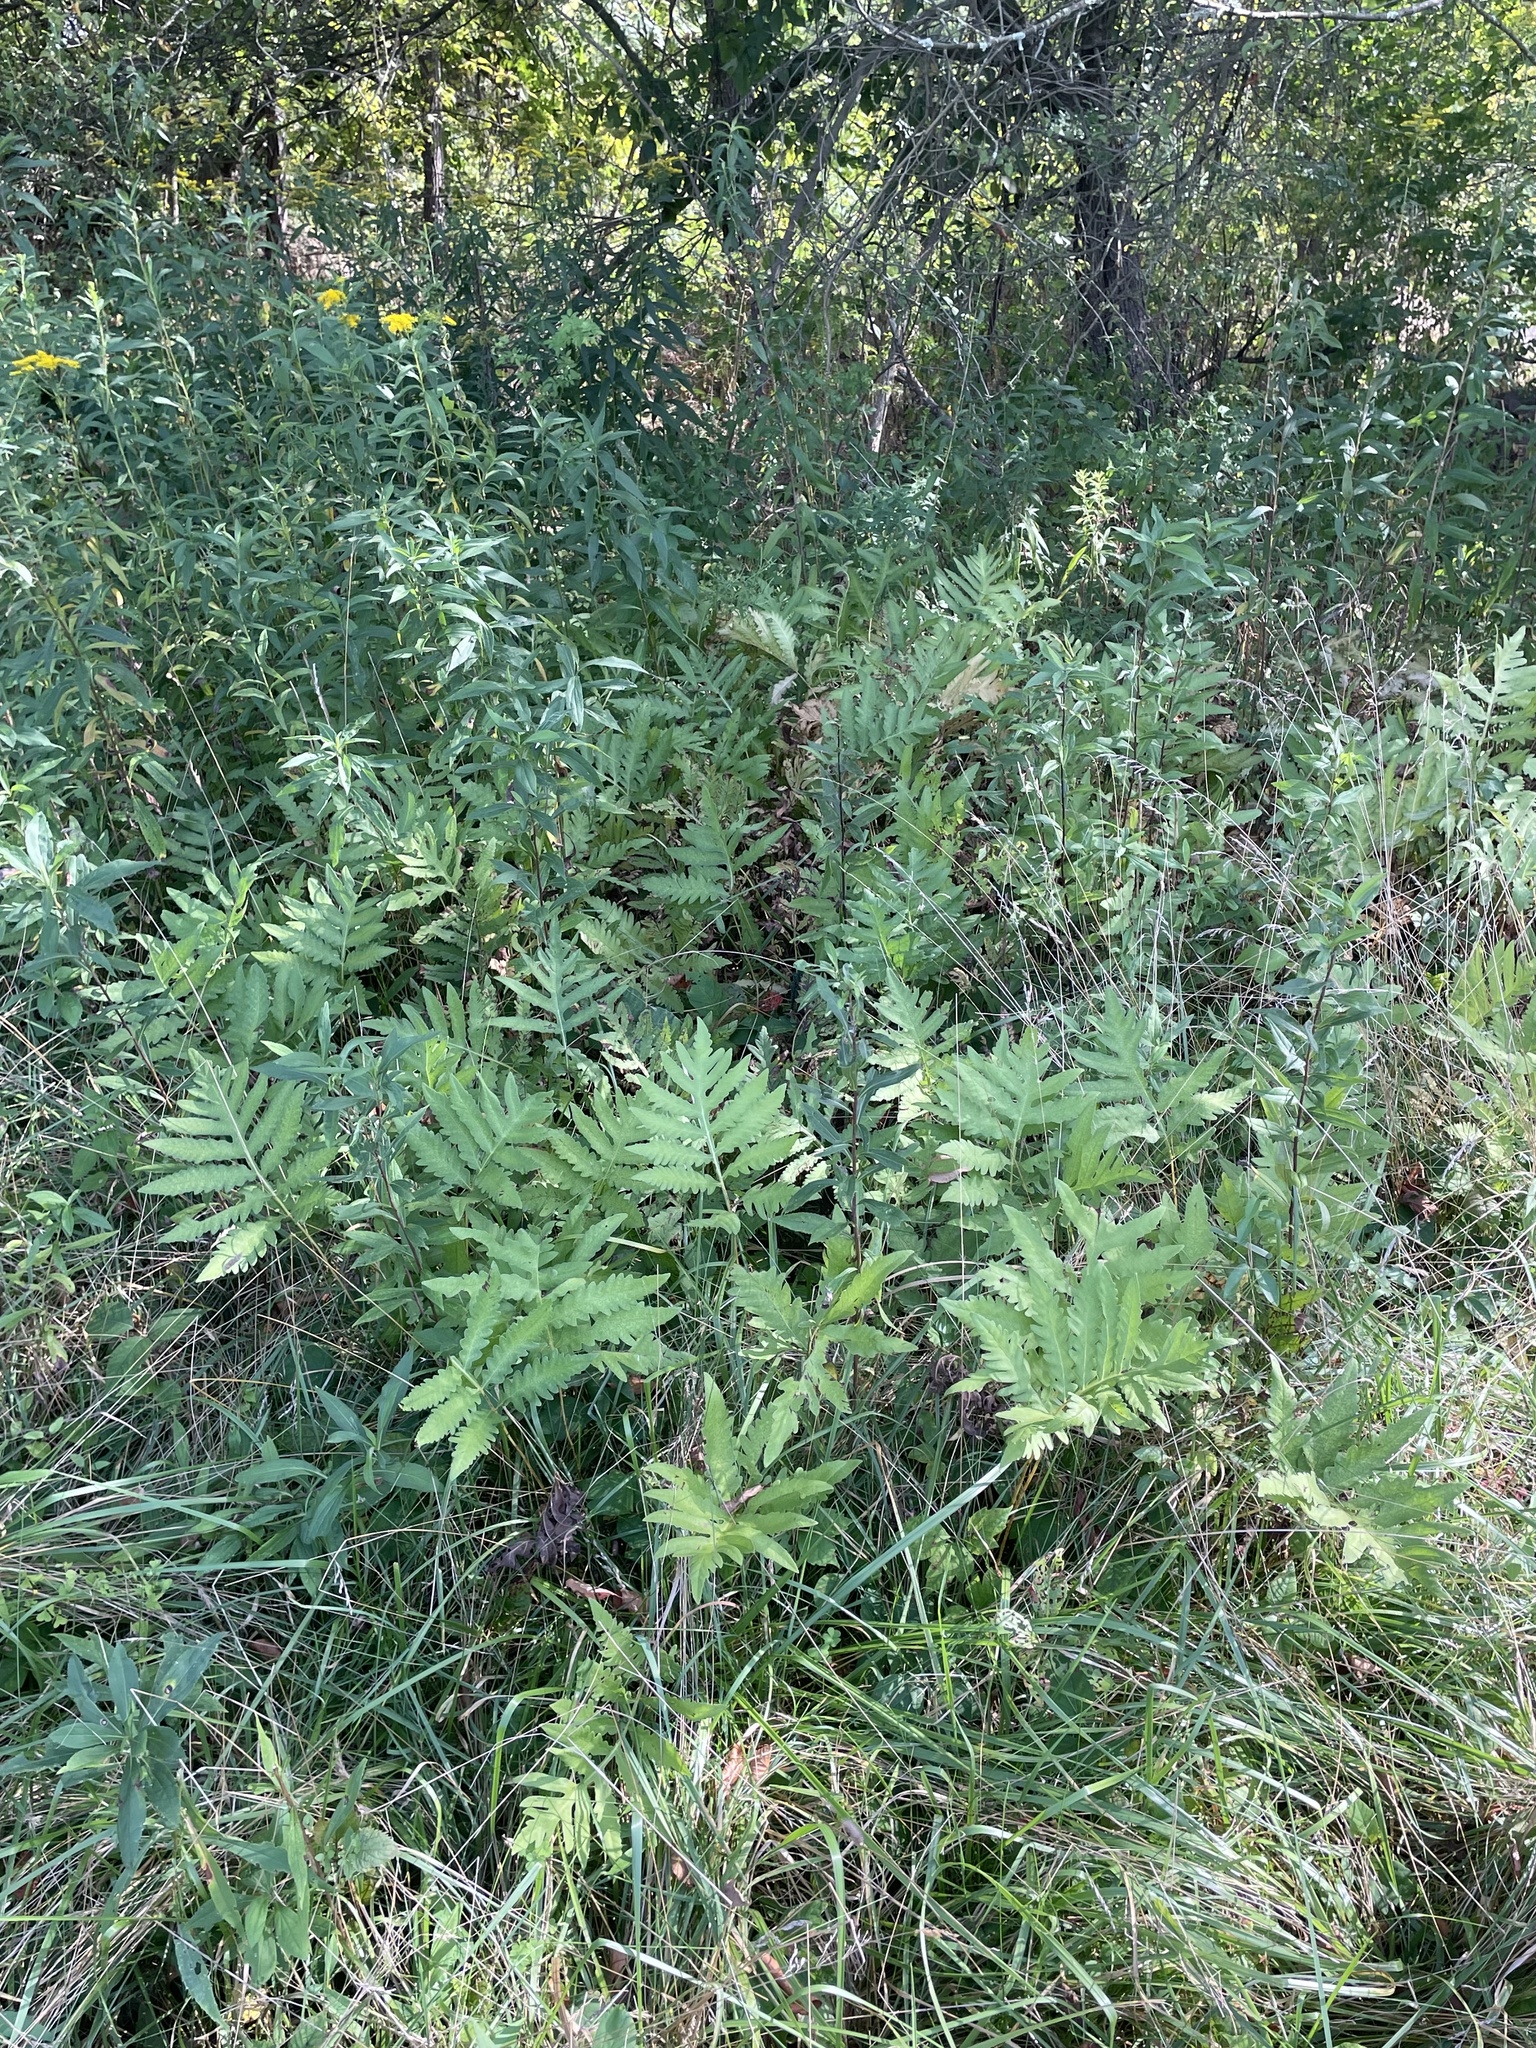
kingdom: Plantae
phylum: Tracheophyta
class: Polypodiopsida
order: Polypodiales
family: Onocleaceae
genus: Onoclea
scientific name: Onoclea sensibilis
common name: Sensitive fern
